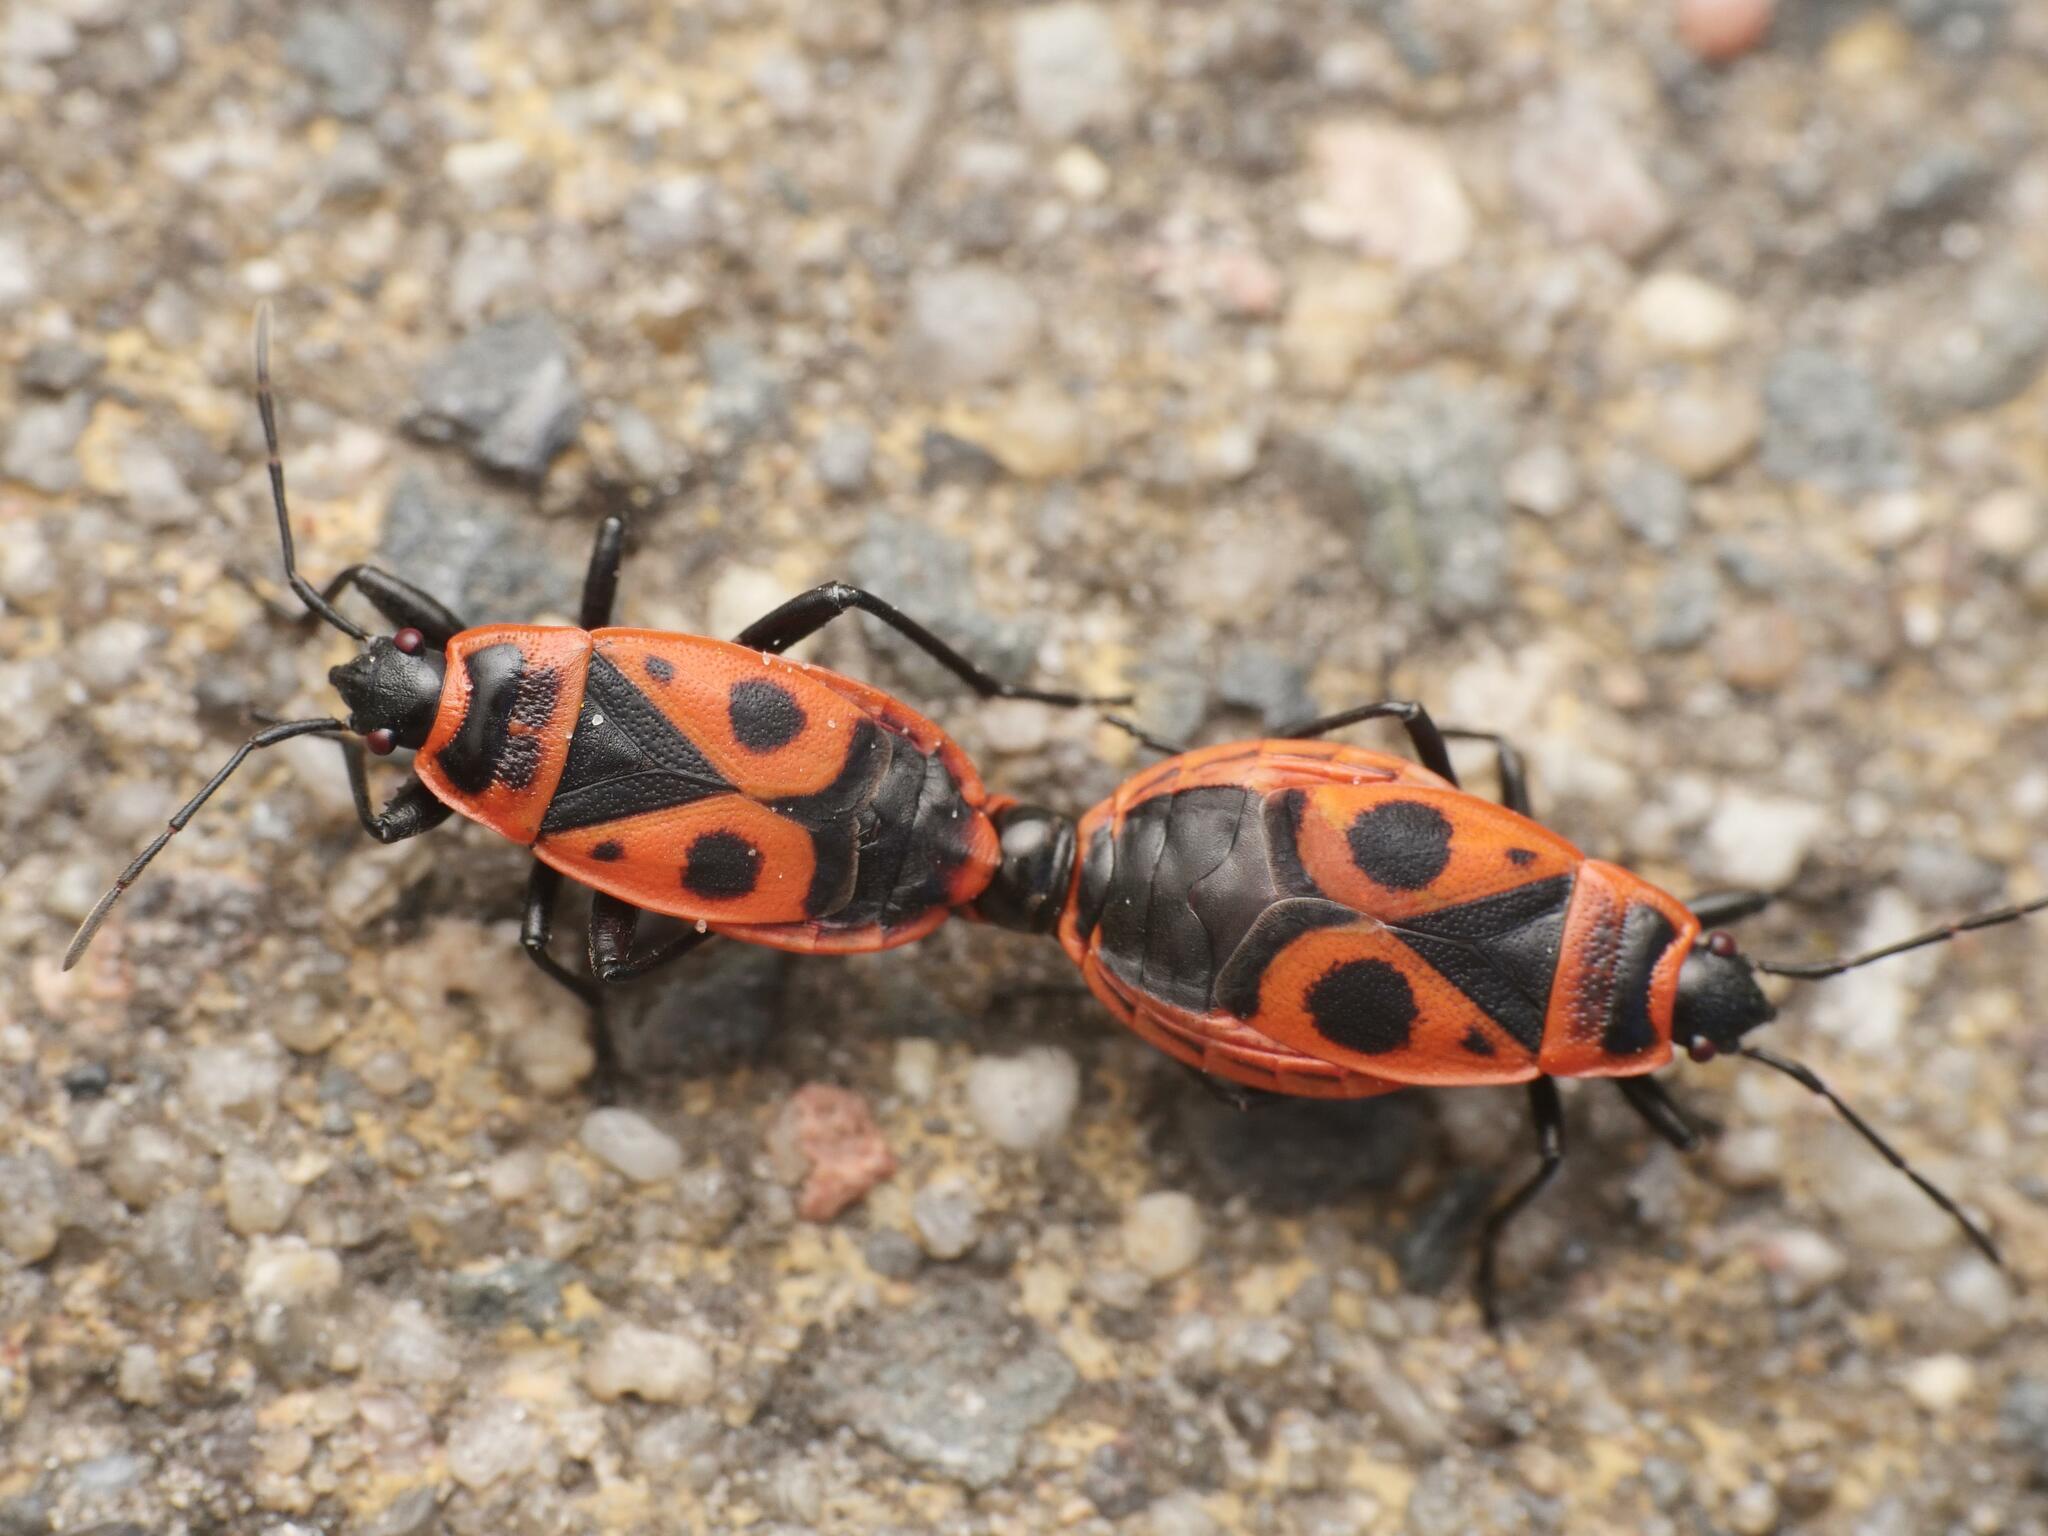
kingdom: Animalia
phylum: Arthropoda
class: Insecta
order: Hemiptera
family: Pyrrhocoridae
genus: Pyrrhocoris
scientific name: Pyrrhocoris apterus
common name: Firebug
